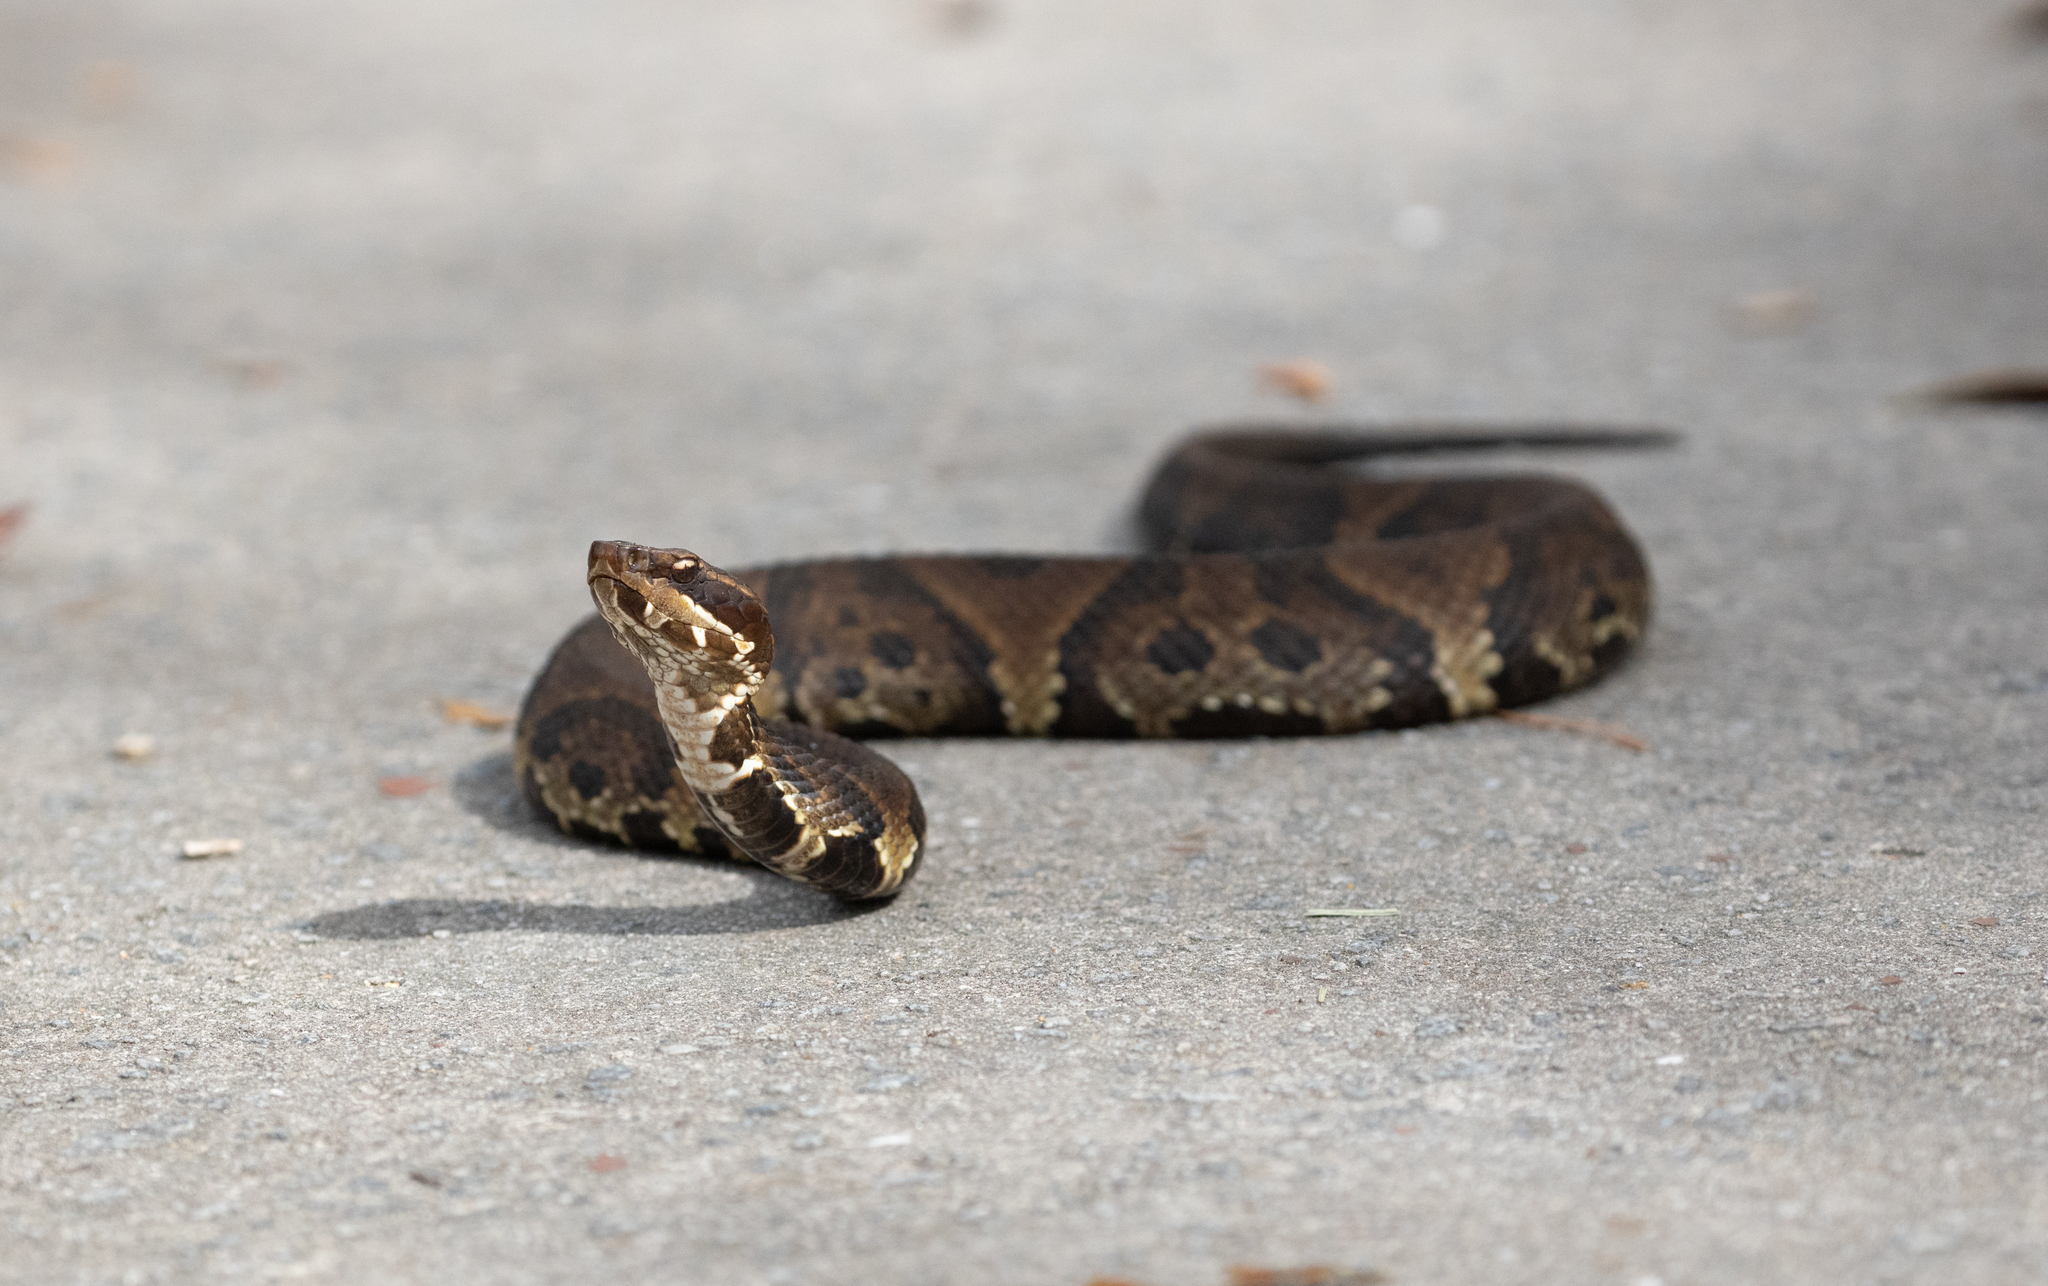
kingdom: Animalia
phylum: Chordata
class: Squamata
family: Viperidae
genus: Agkistrodon
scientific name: Agkistrodon piscivorus
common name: Cottonmouth
